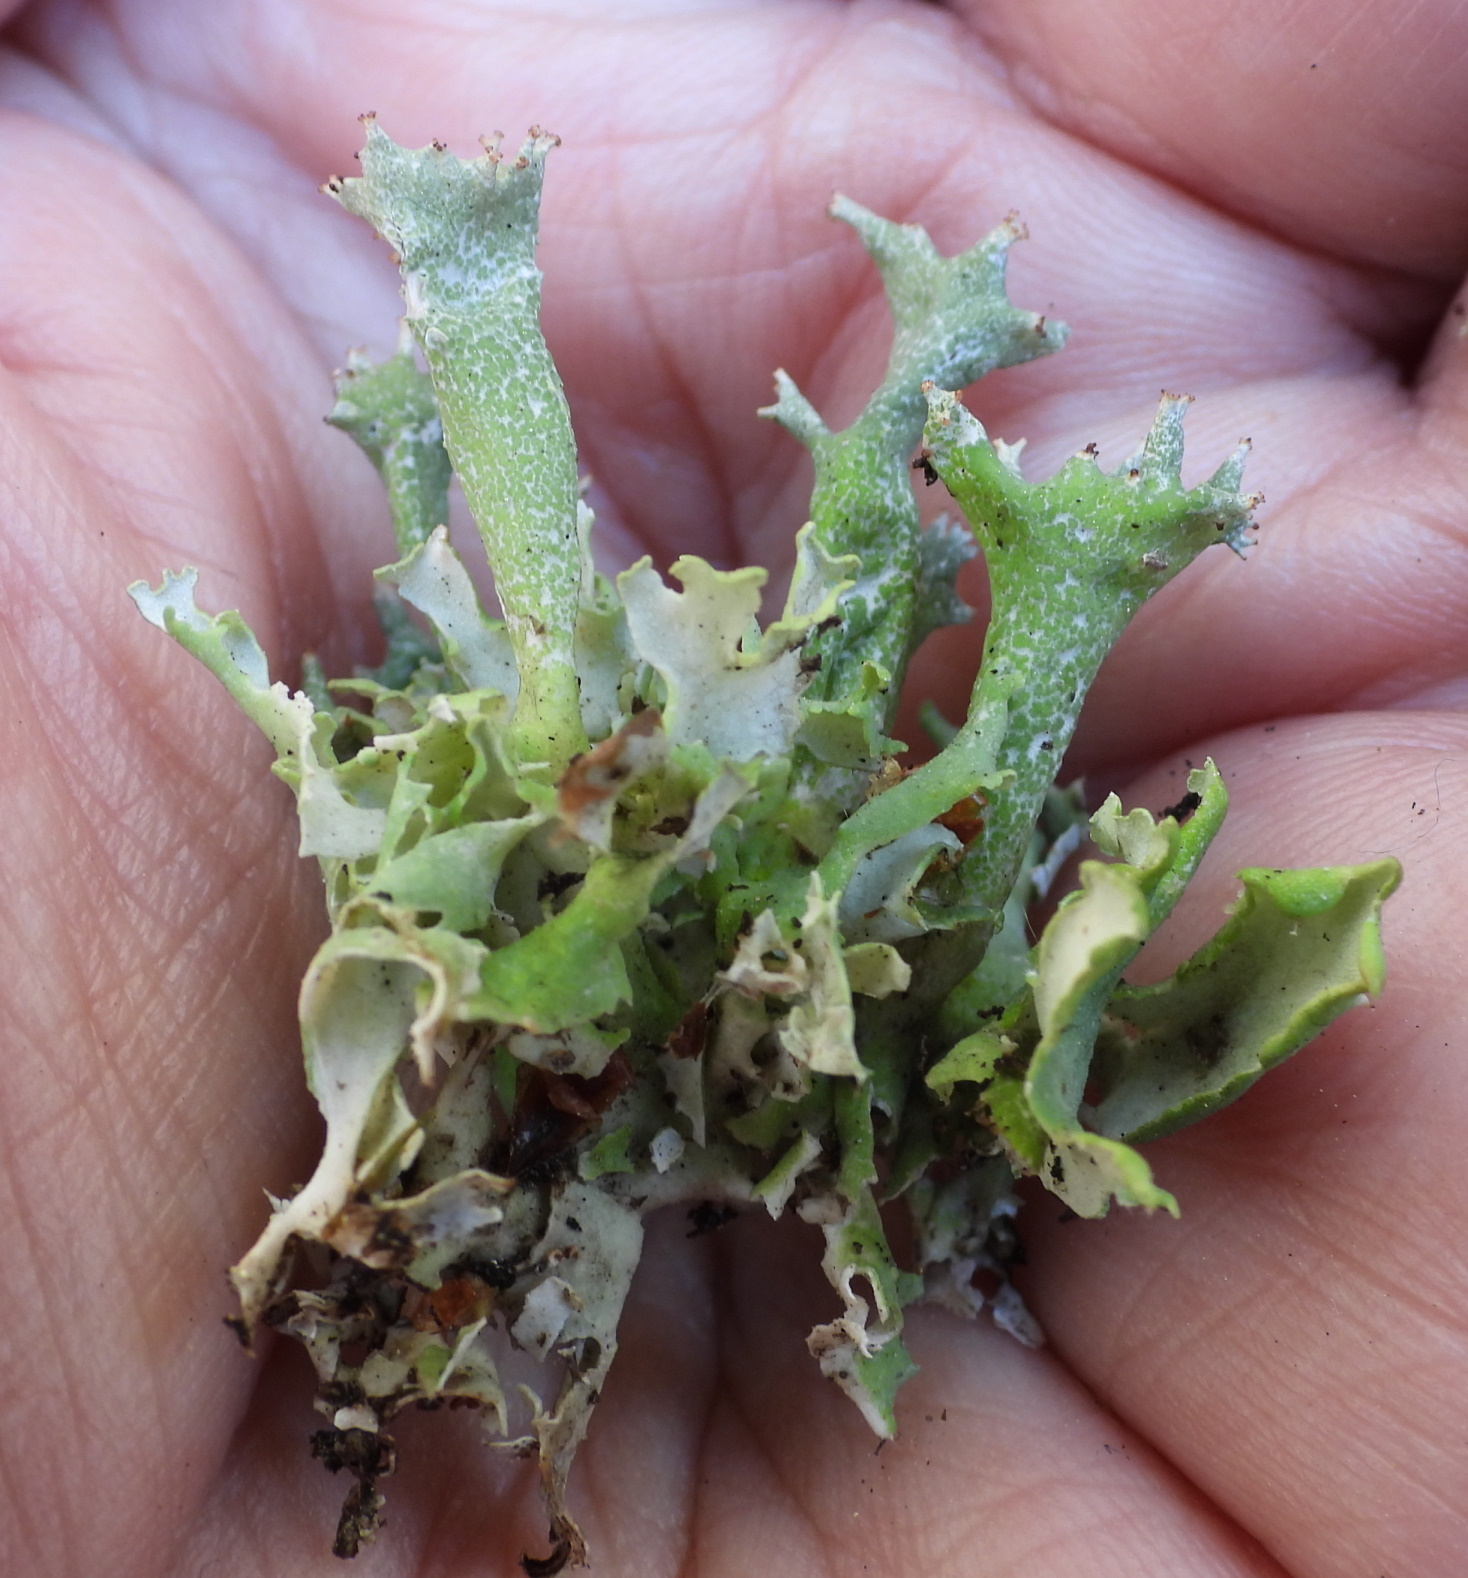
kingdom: Fungi
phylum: Ascomycota
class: Lecanoromycetes
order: Lecanorales
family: Cladoniaceae
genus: Cladonia
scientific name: Cladonia turgida
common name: Crazy scale lichen
